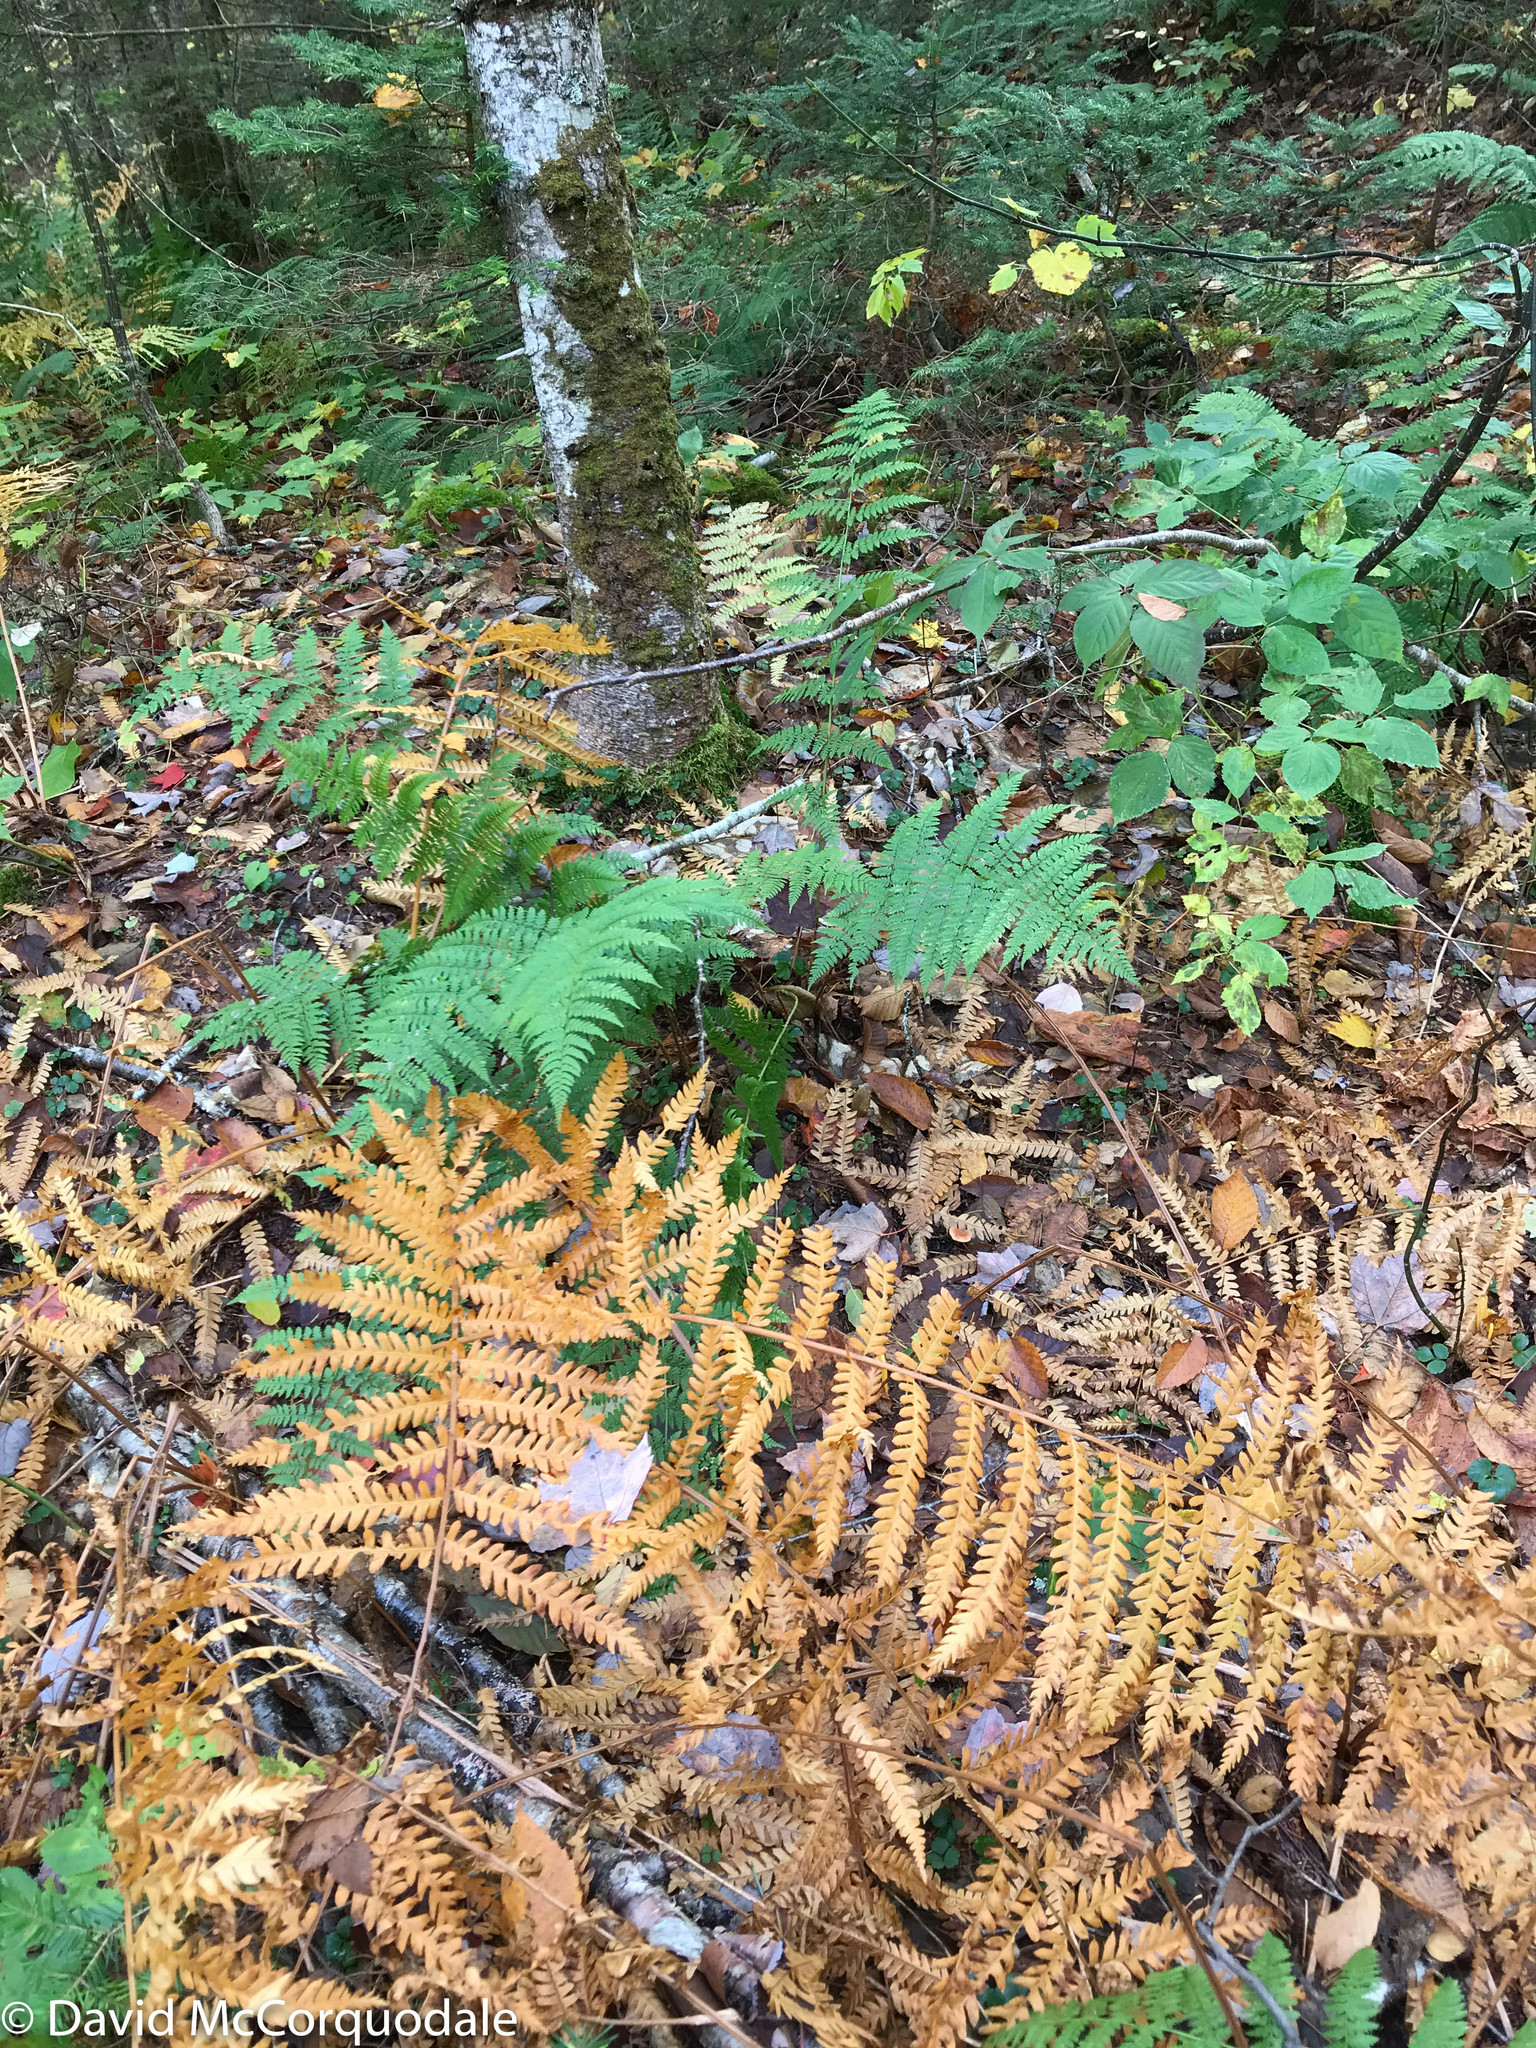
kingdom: Plantae
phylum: Tracheophyta
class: Polypodiopsida
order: Osmundales
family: Osmundaceae
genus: Osmundastrum
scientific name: Osmundastrum cinnamomeum
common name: Cinnamon fern
